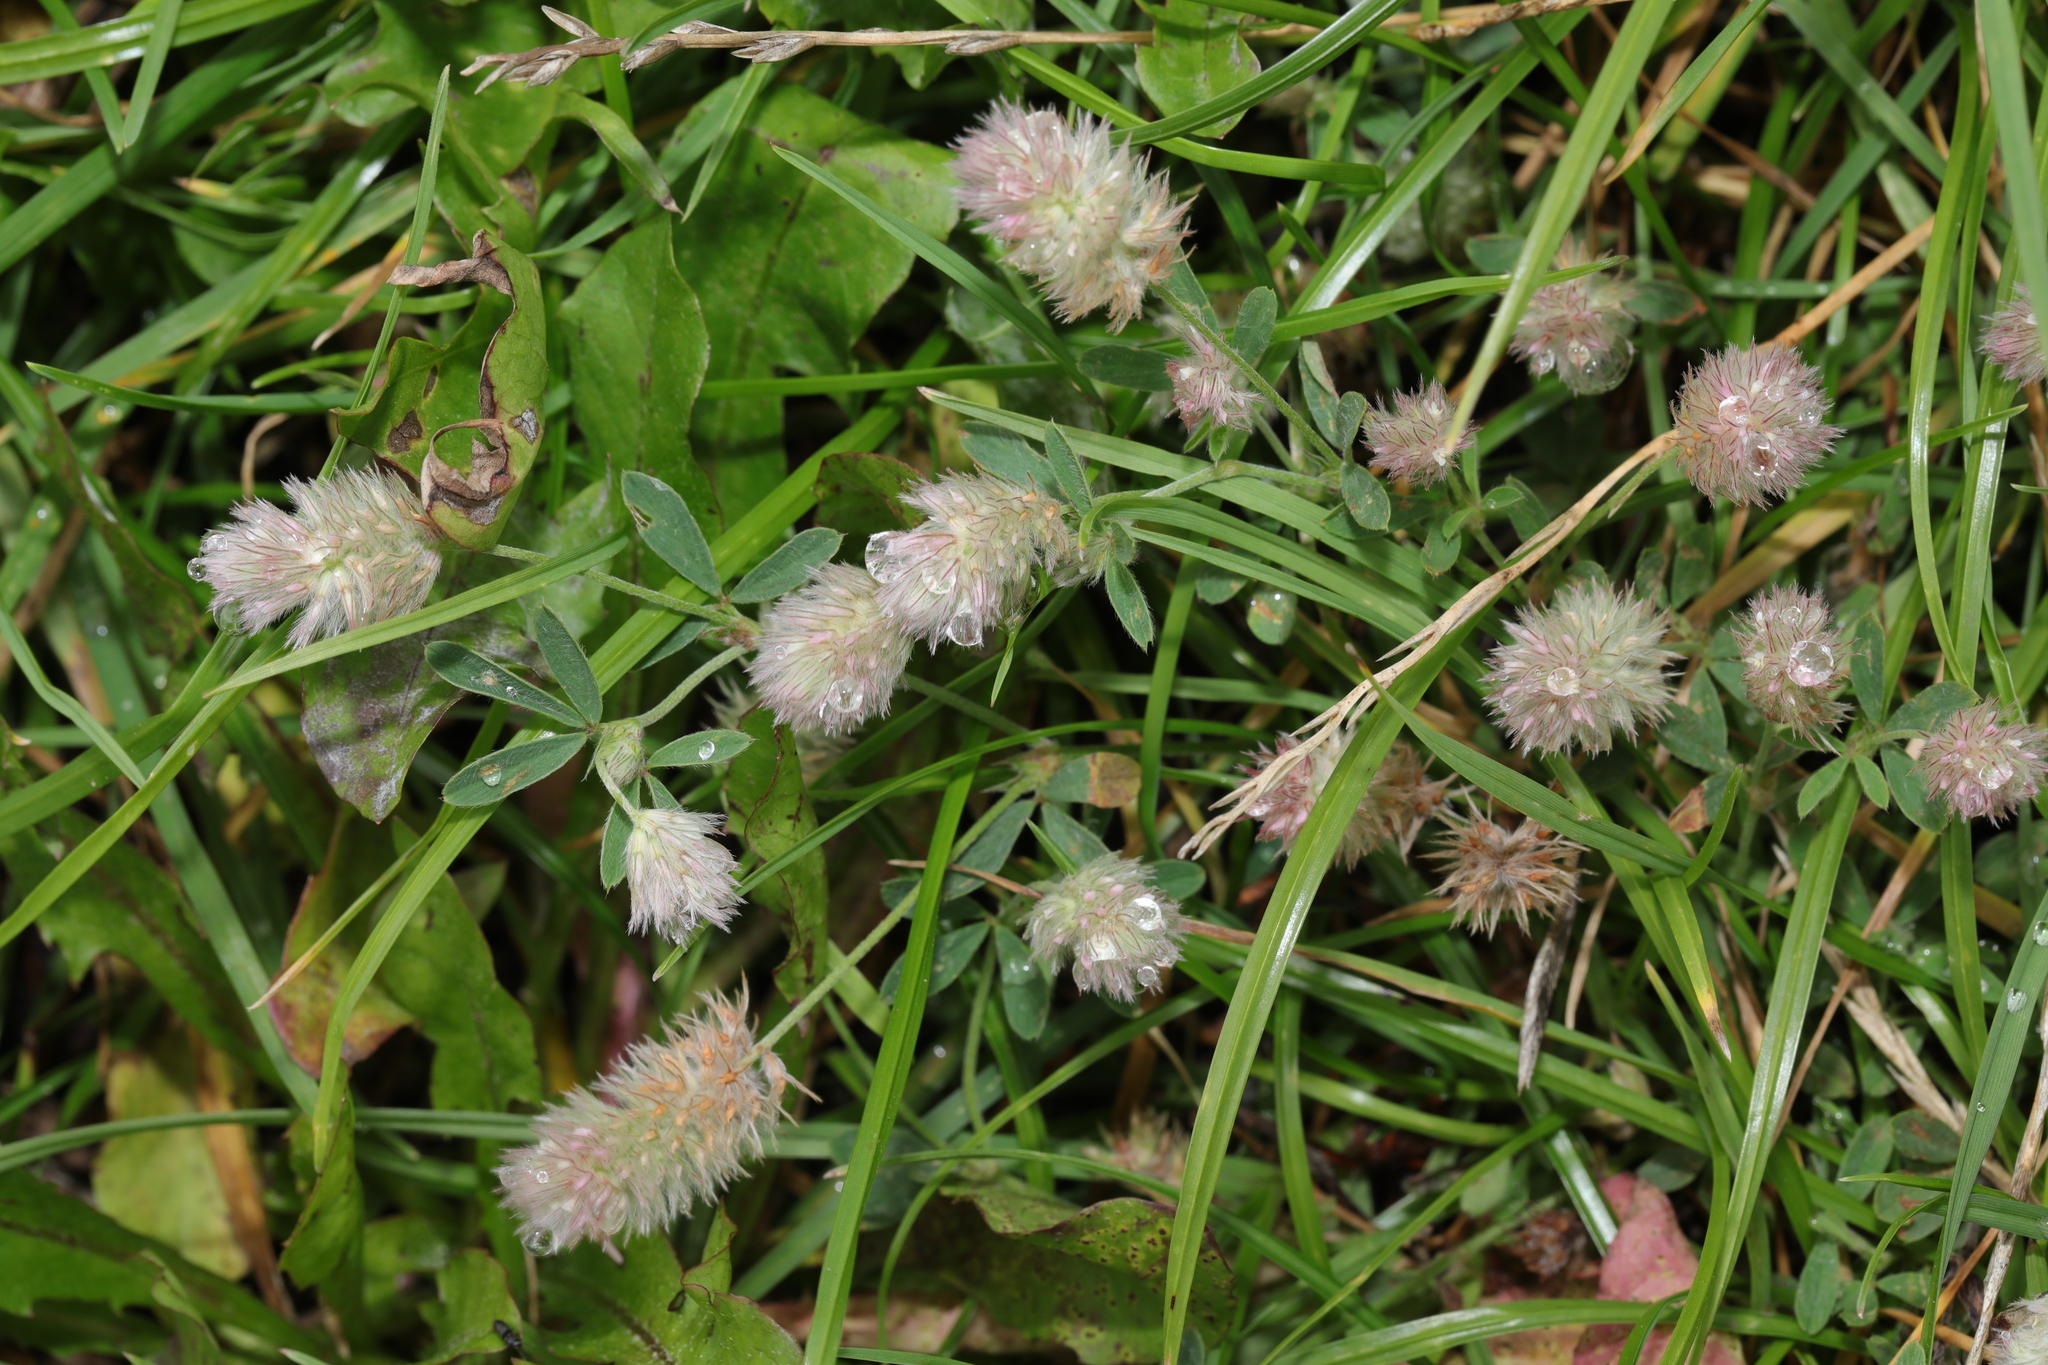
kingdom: Plantae
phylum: Tracheophyta
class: Magnoliopsida
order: Fabales
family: Fabaceae
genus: Trifolium
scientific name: Trifolium arvense
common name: Hare's-foot clover
